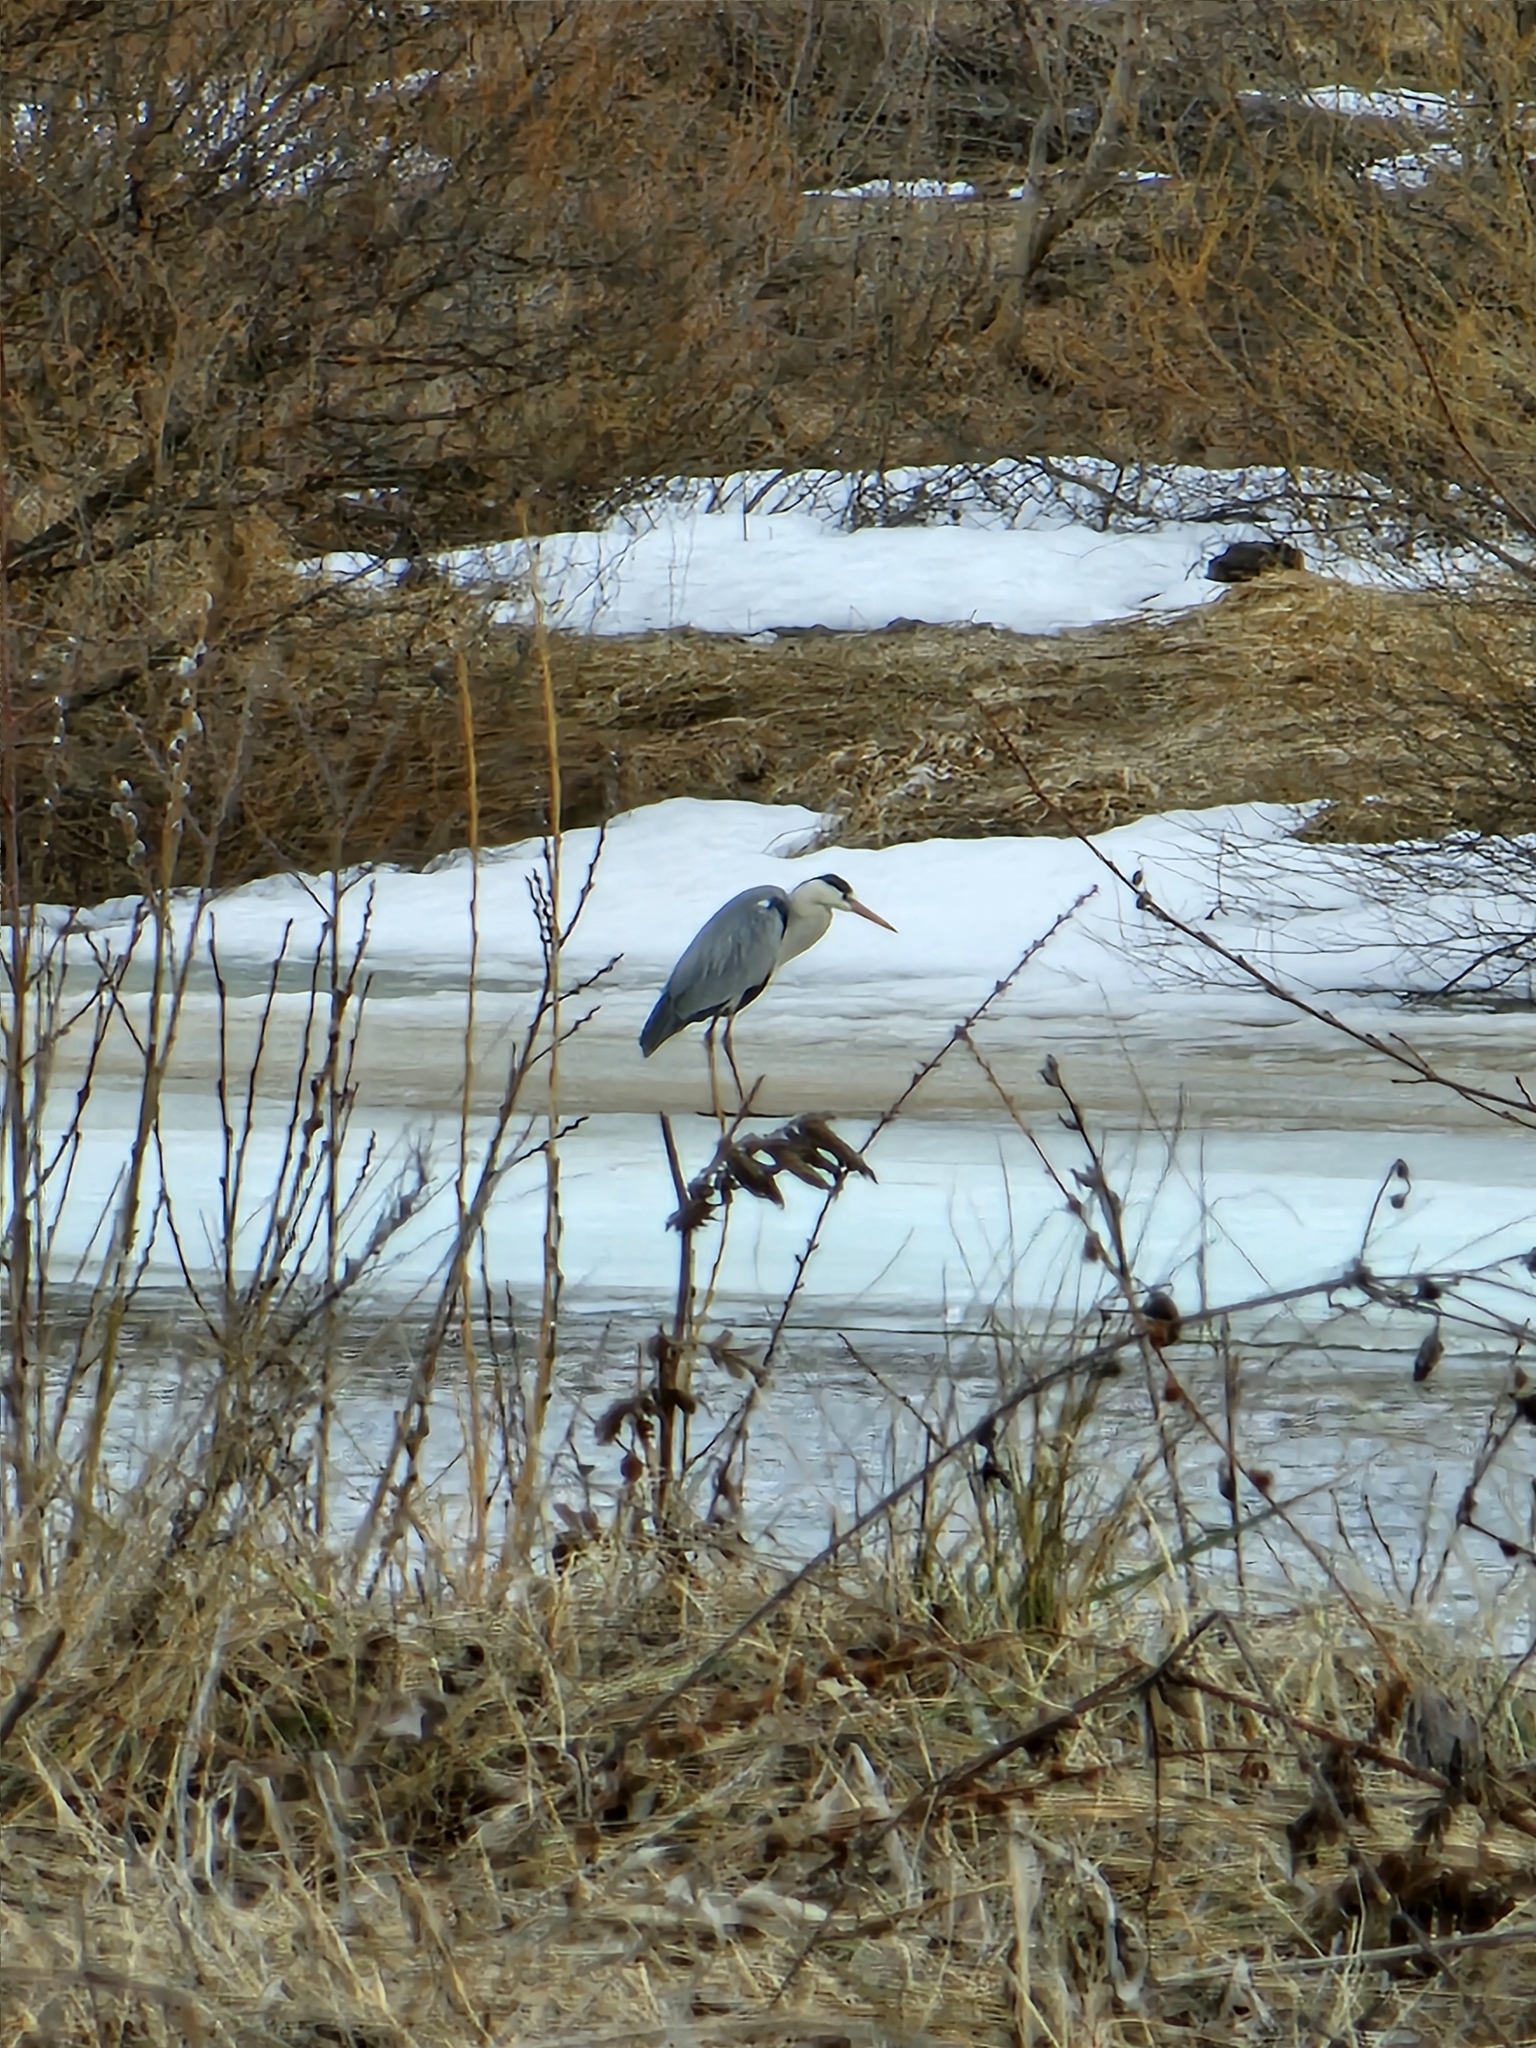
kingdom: Animalia
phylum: Chordata
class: Aves
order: Pelecaniformes
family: Ardeidae
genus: Ardea
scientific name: Ardea cinerea
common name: Grey heron
